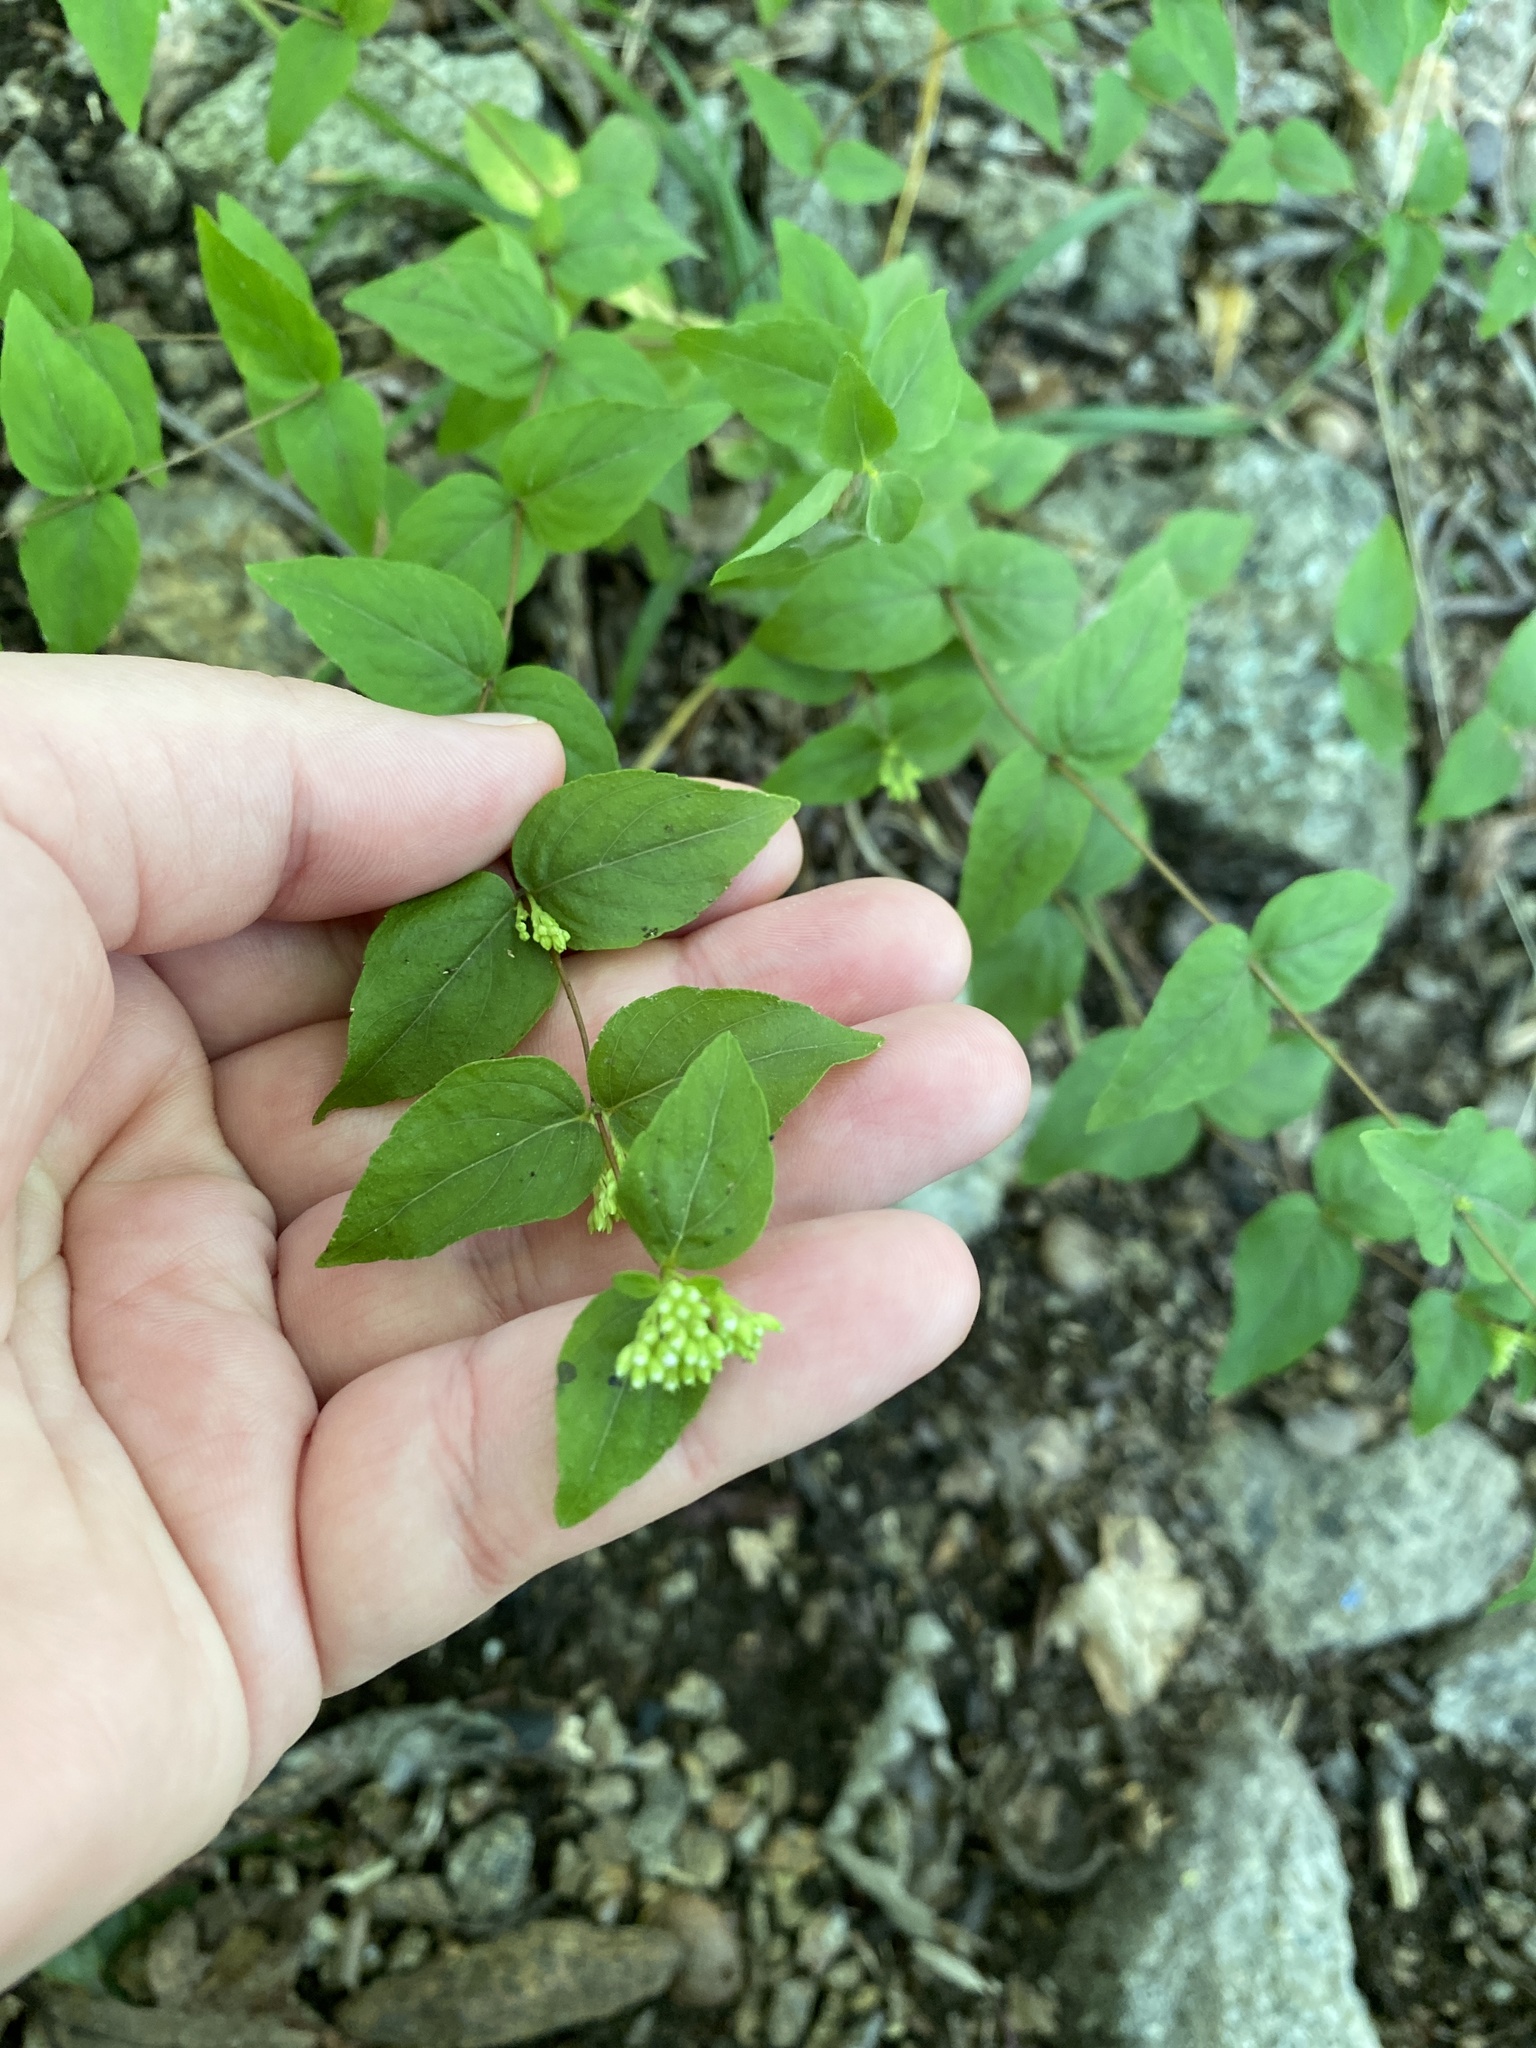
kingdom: Plantae
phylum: Tracheophyta
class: Magnoliopsida
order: Lamiales
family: Lamiaceae
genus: Cunila
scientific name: Cunila origanoides
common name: American dittany
